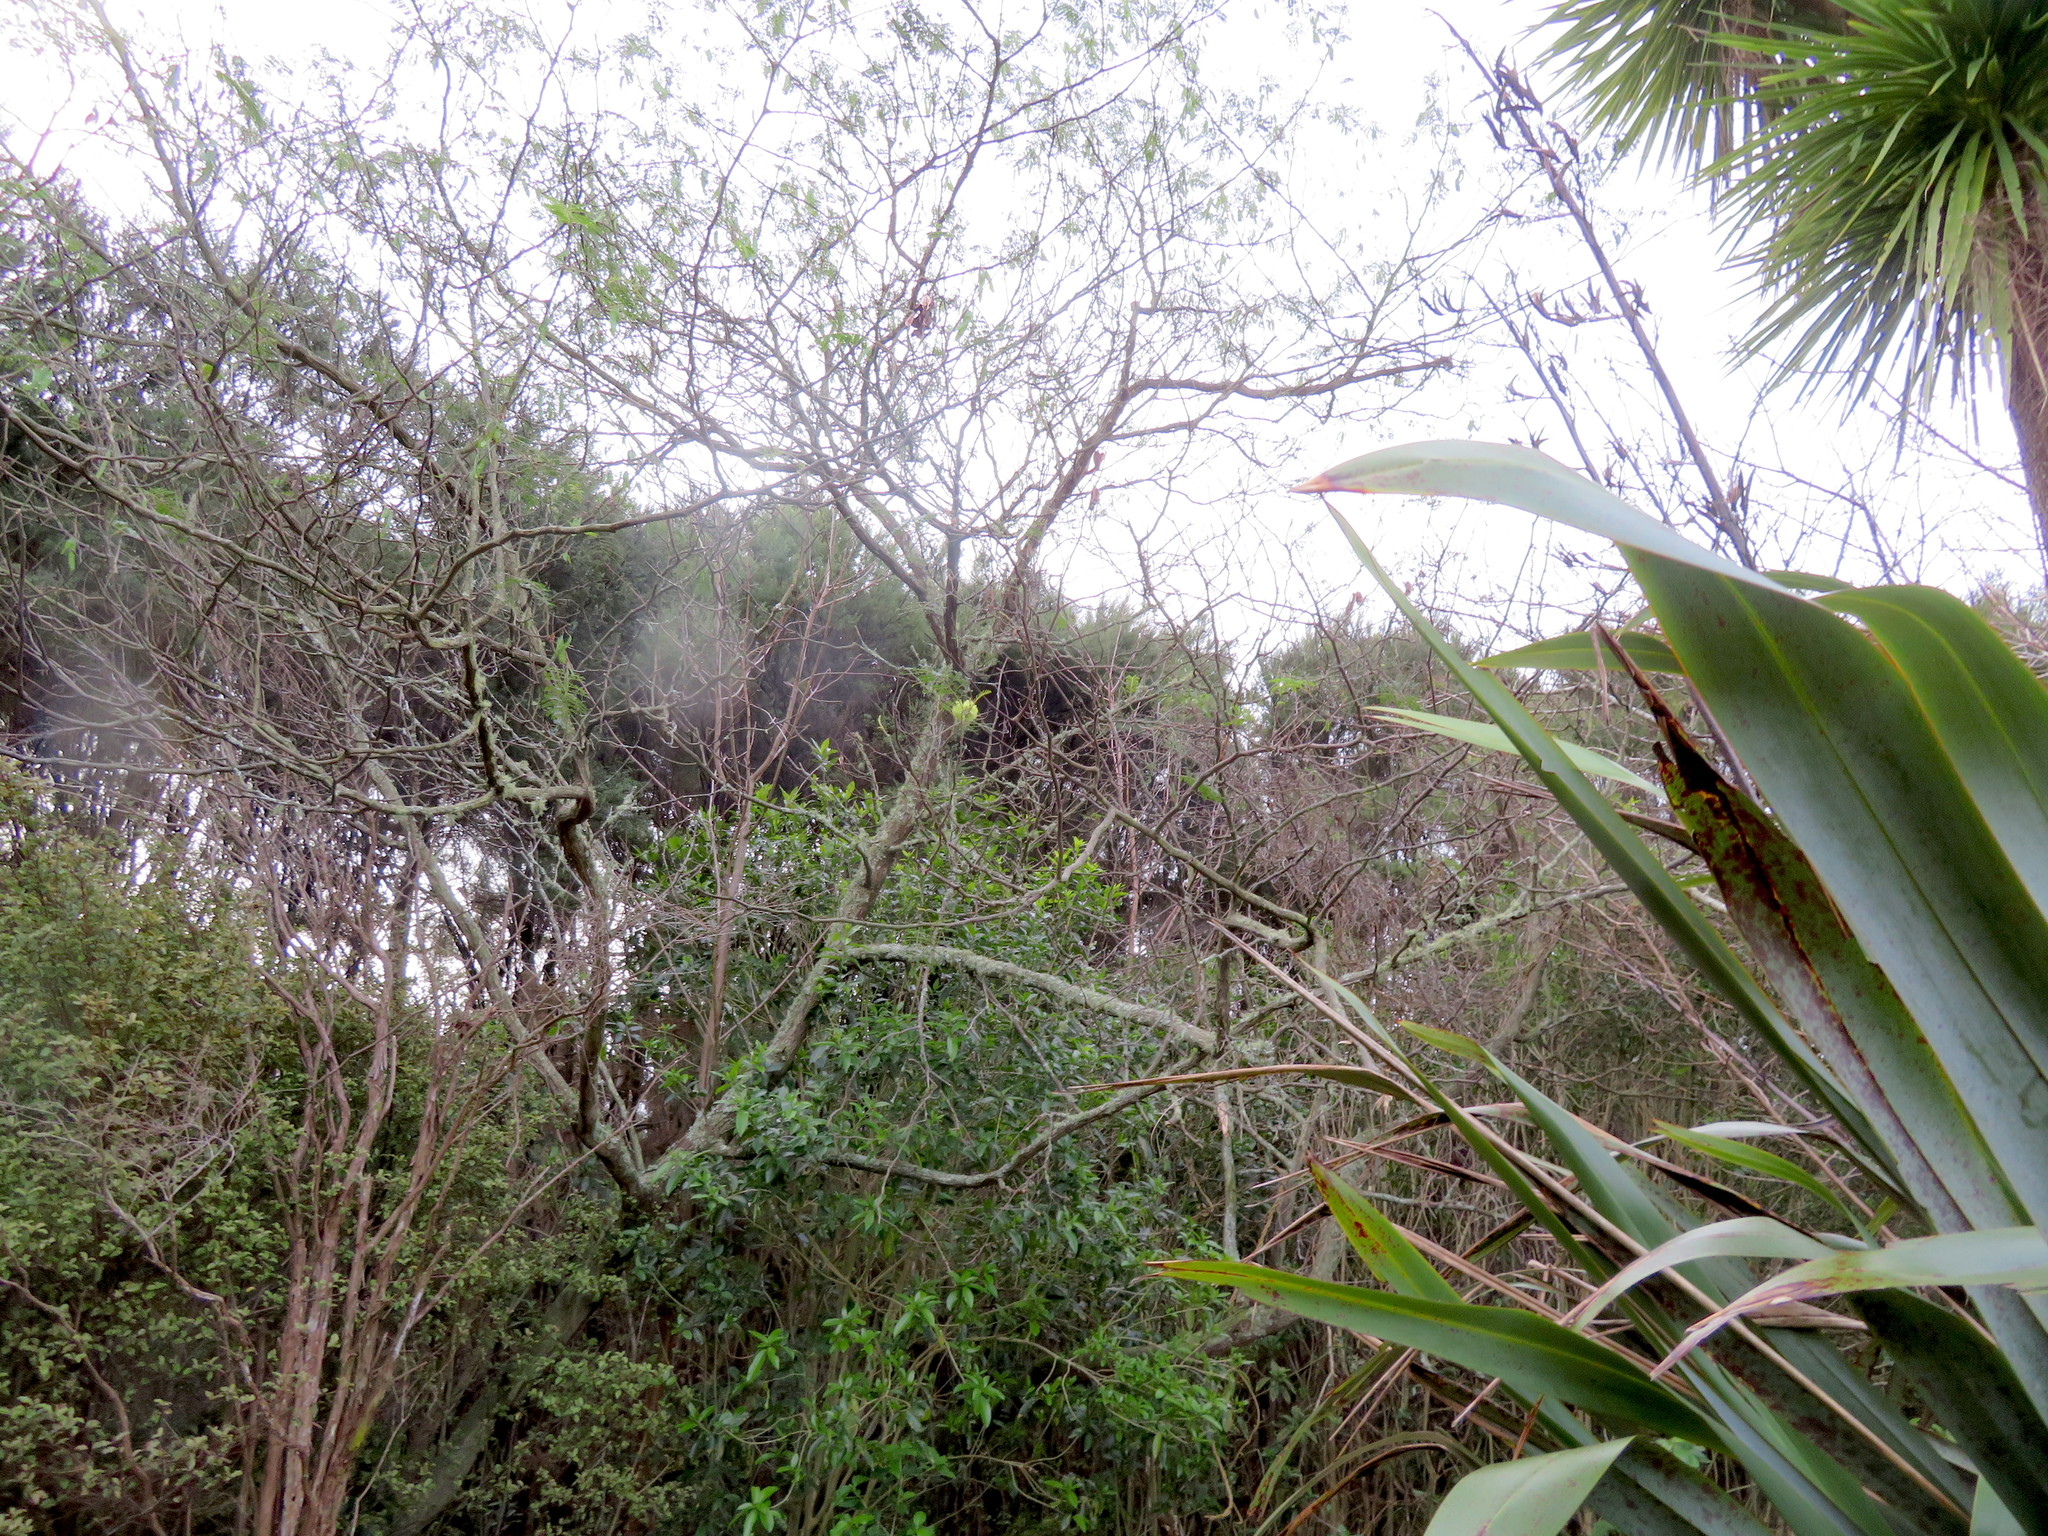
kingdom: Plantae
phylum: Tracheophyta
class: Magnoliopsida
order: Fabales
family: Fabaceae
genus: Paraserianthes
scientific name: Paraserianthes lophantha
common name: Plume albizia
